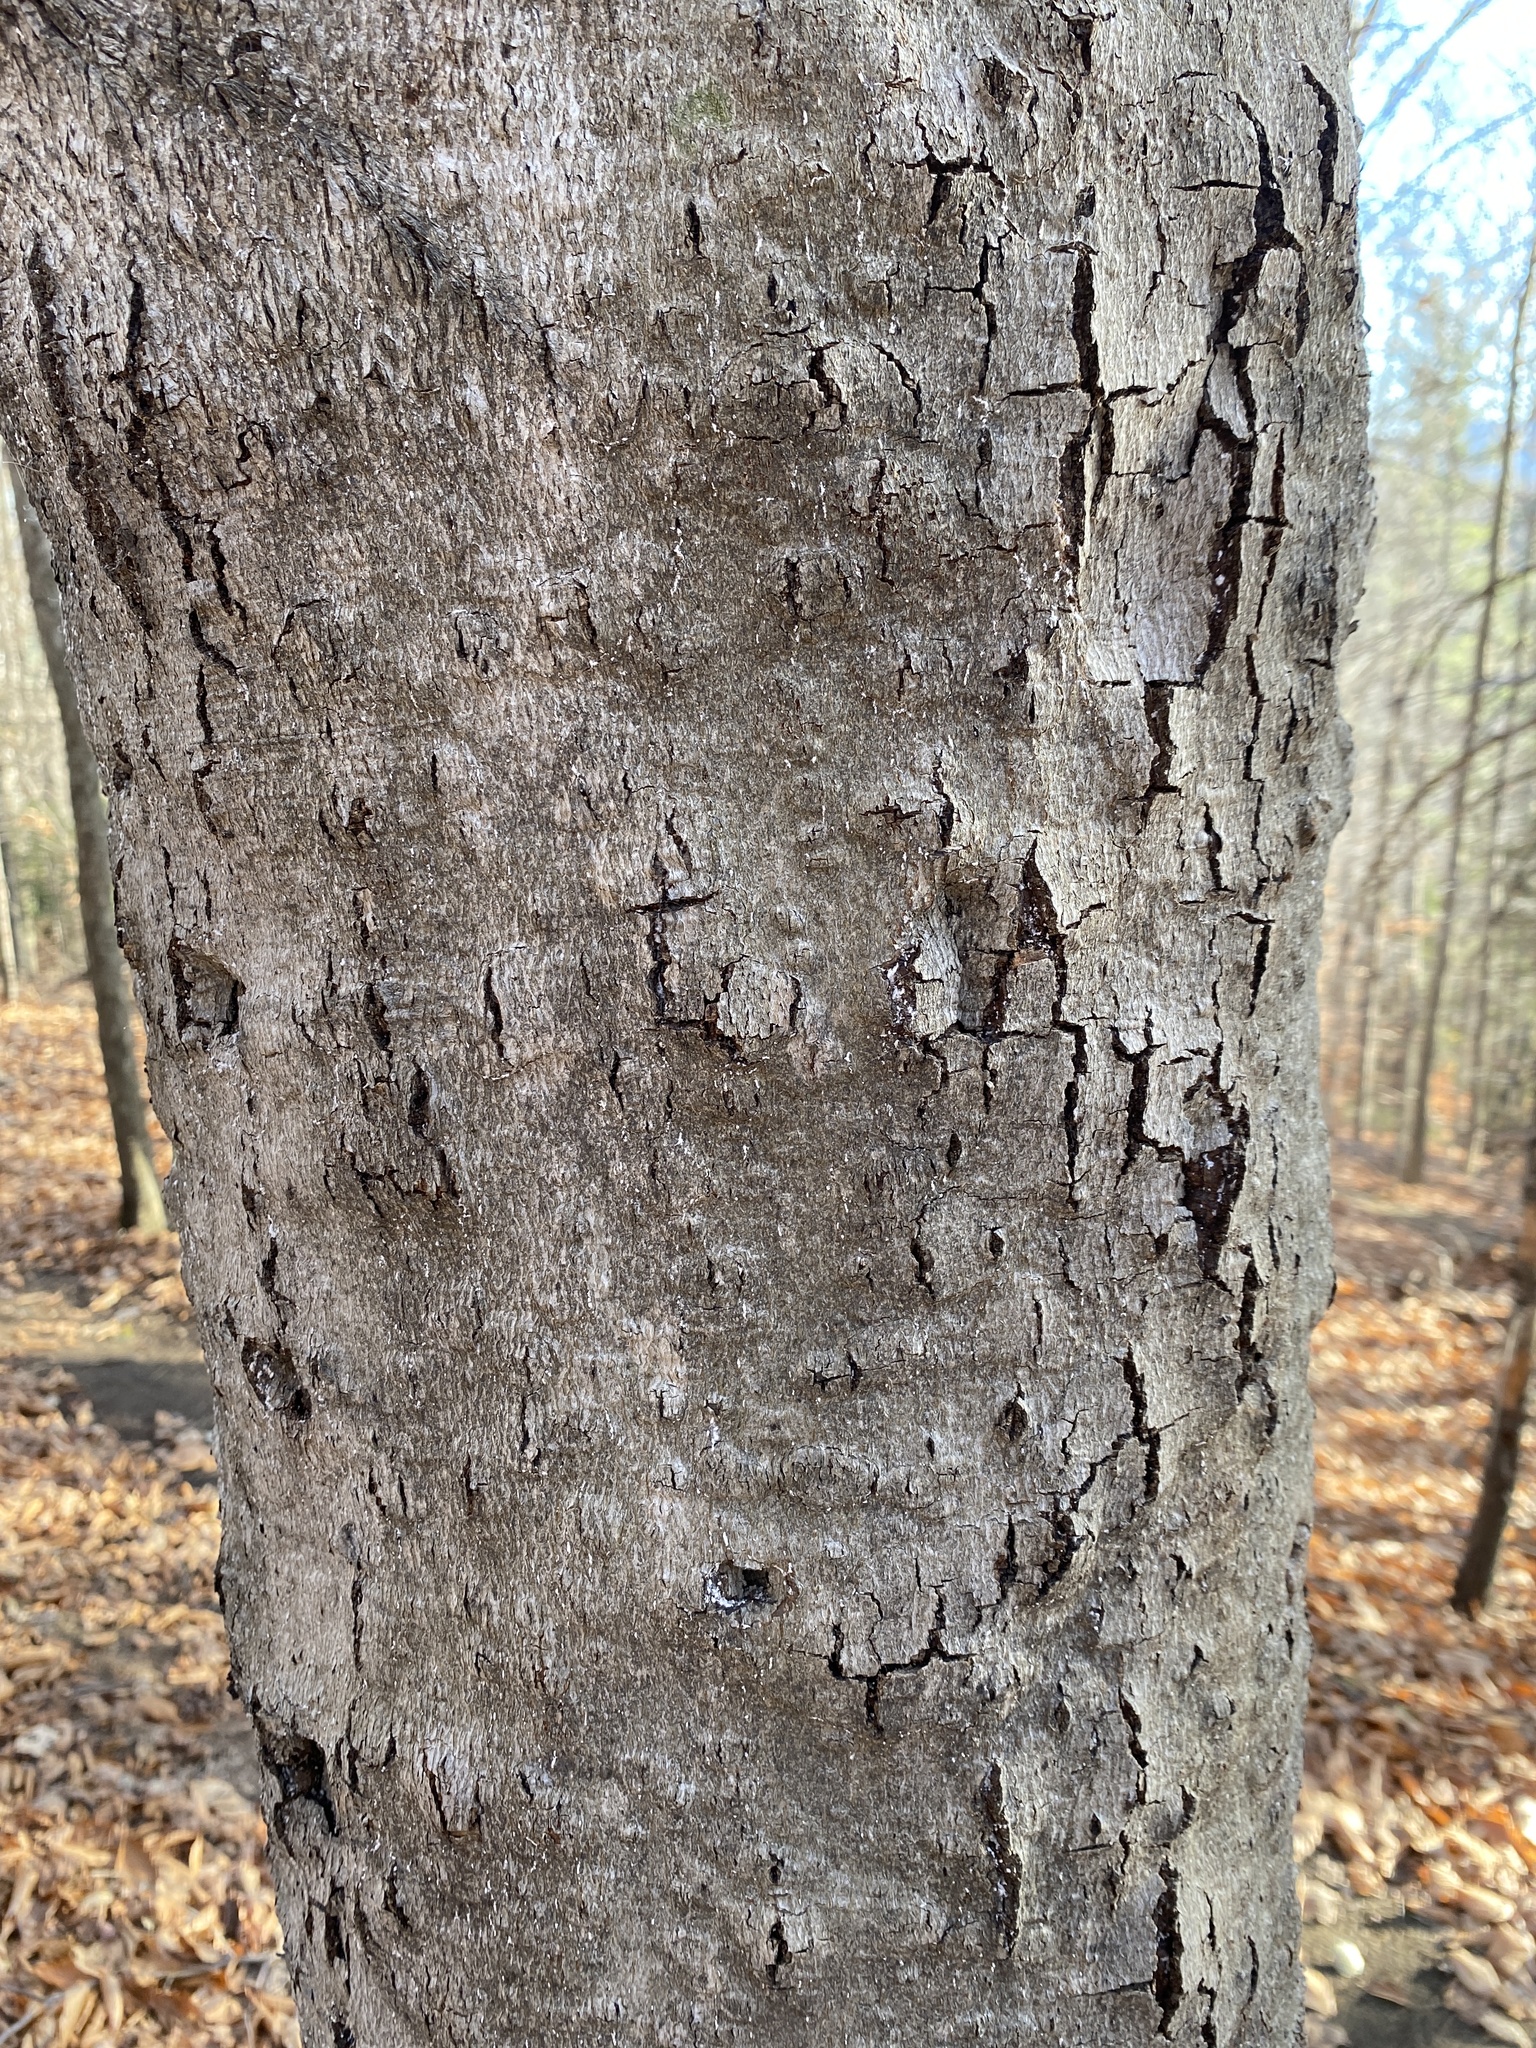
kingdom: Plantae
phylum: Tracheophyta
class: Magnoliopsida
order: Fagales
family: Fagaceae
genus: Fagus
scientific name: Fagus grandifolia
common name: American beech
